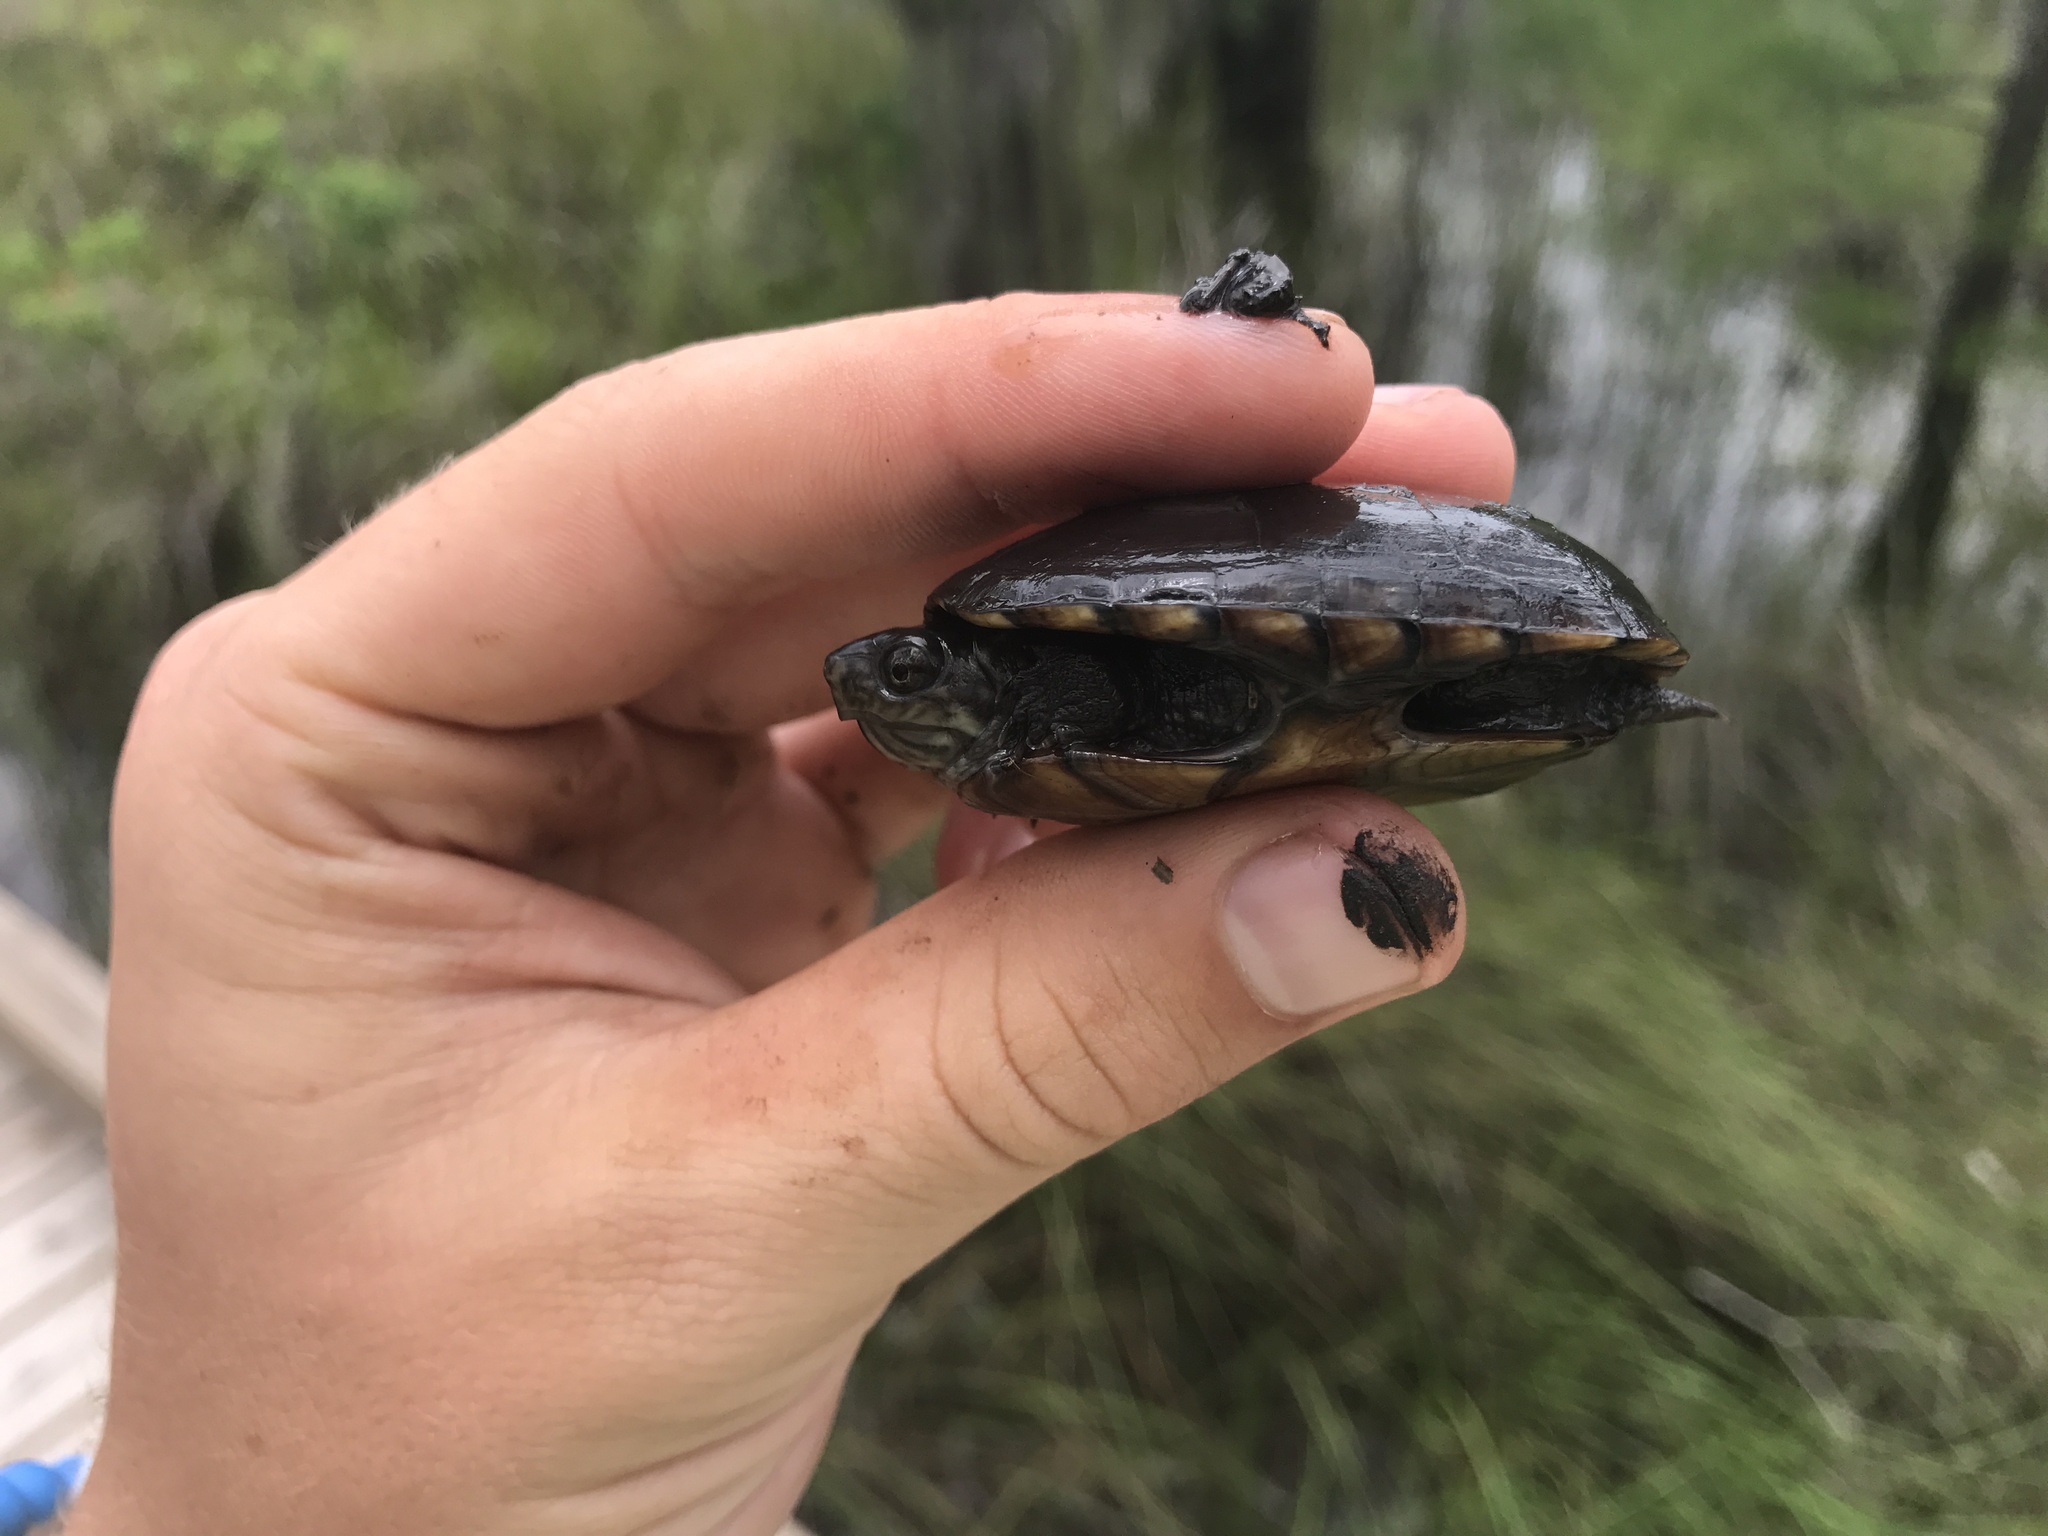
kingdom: Animalia
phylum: Chordata
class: Testudines
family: Kinosternidae
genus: Kinosternon
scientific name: Kinosternon subrubrum
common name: Eastern mud turtle
